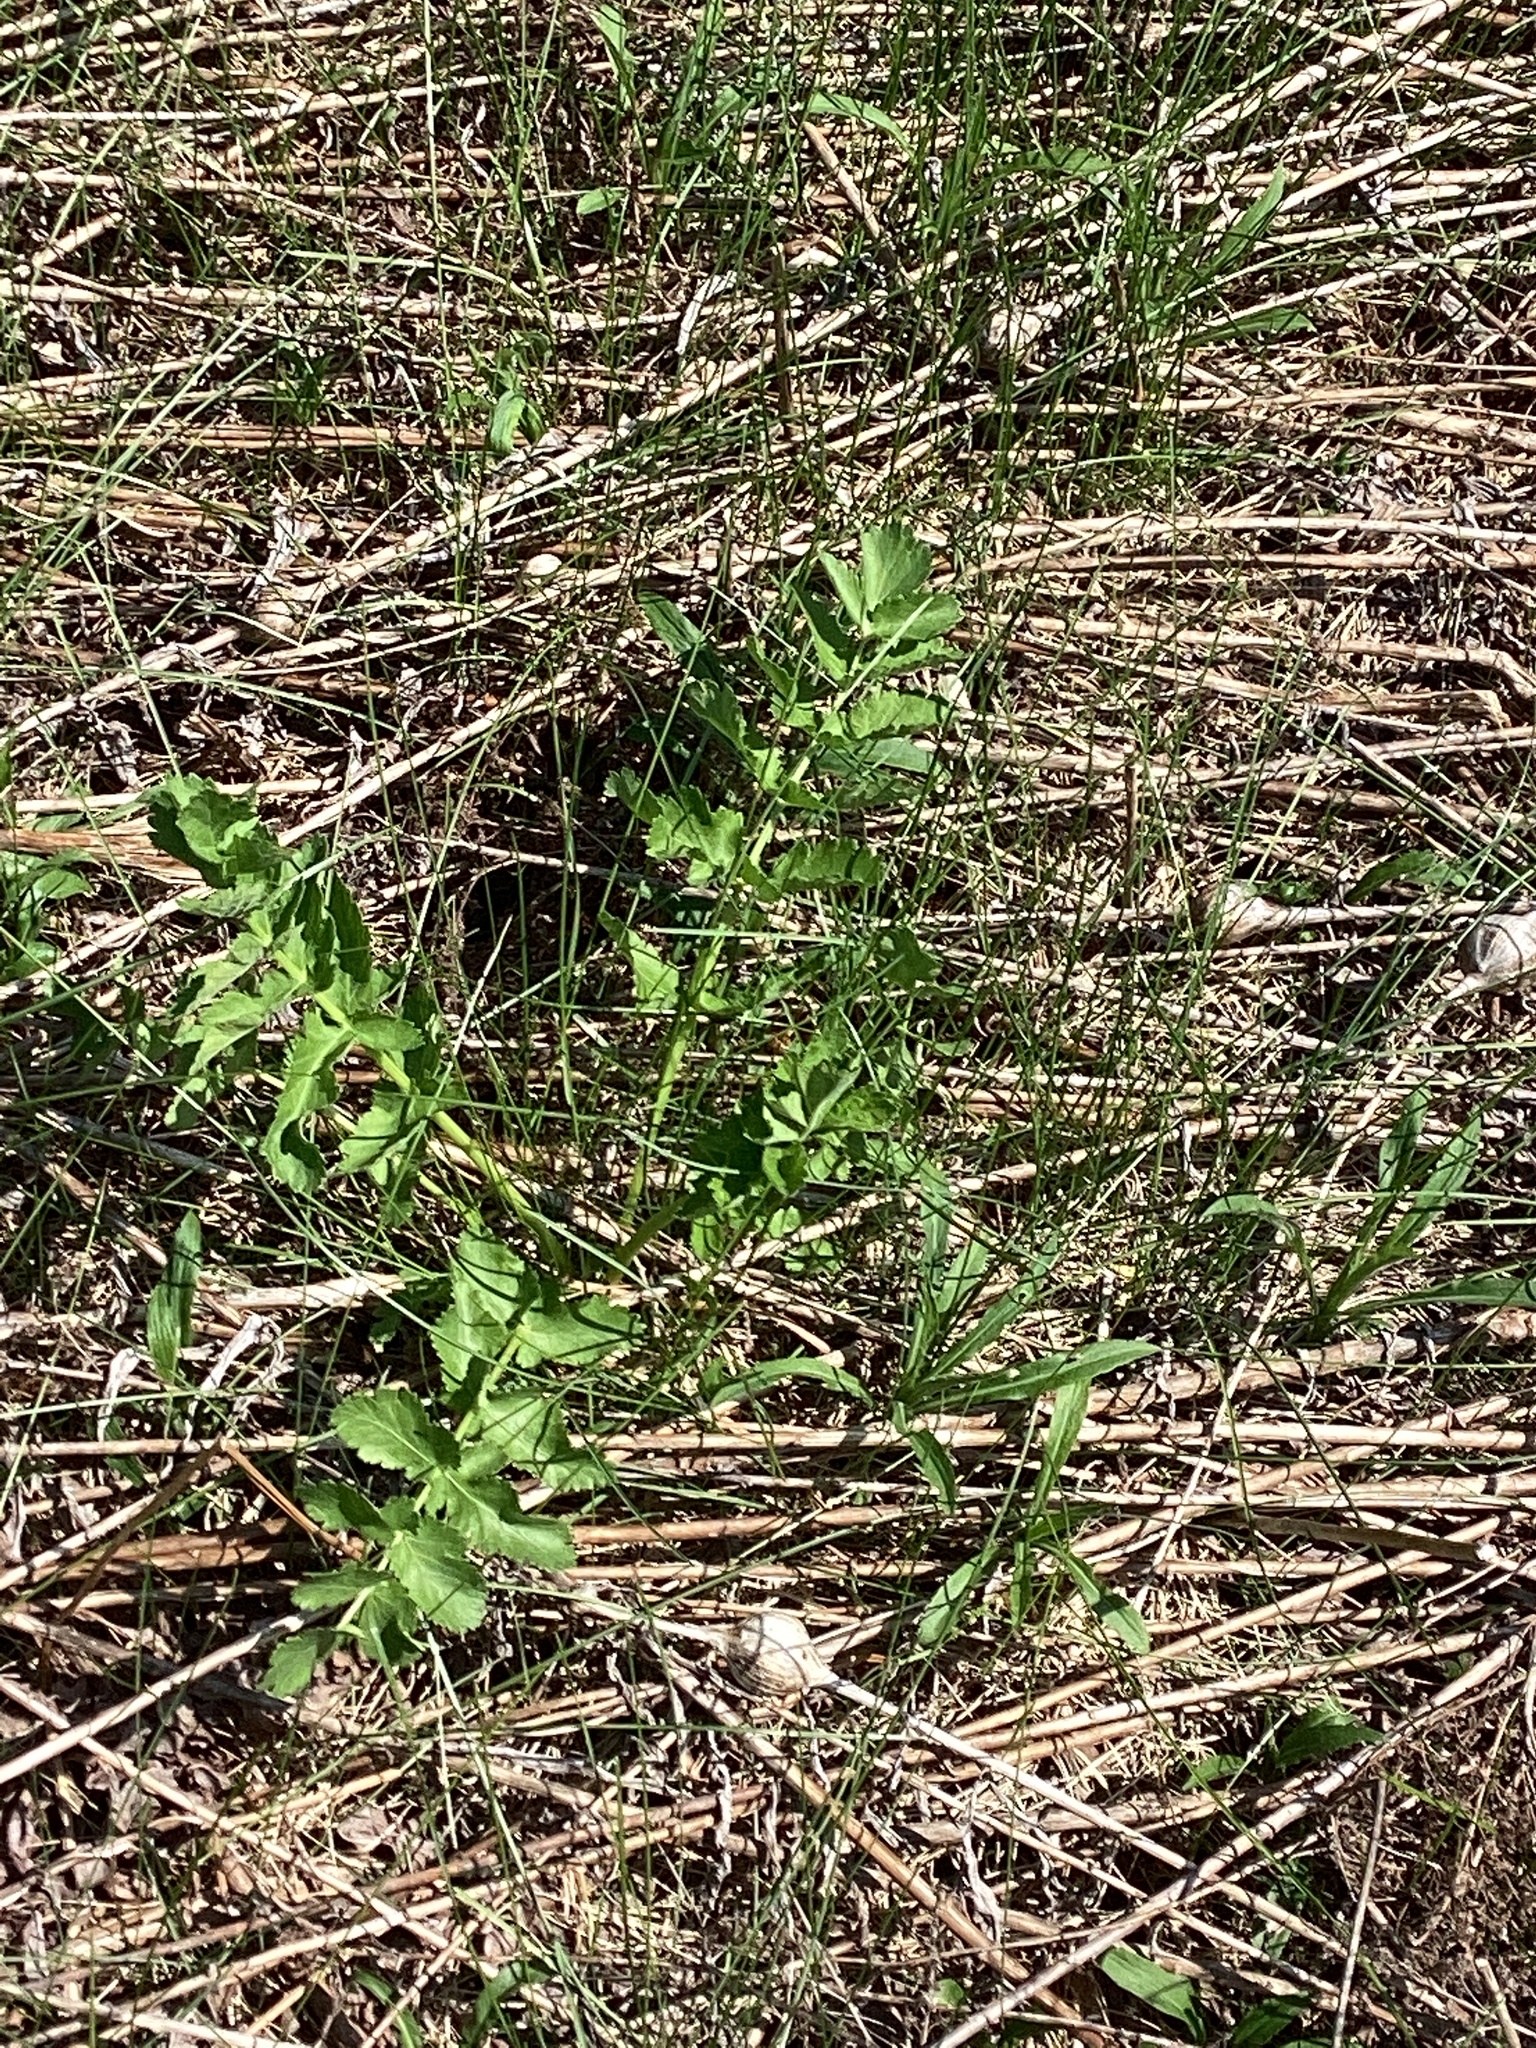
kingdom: Plantae
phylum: Tracheophyta
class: Magnoliopsida
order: Apiales
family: Apiaceae
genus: Pastinaca
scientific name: Pastinaca sativa
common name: Wild parsnip
